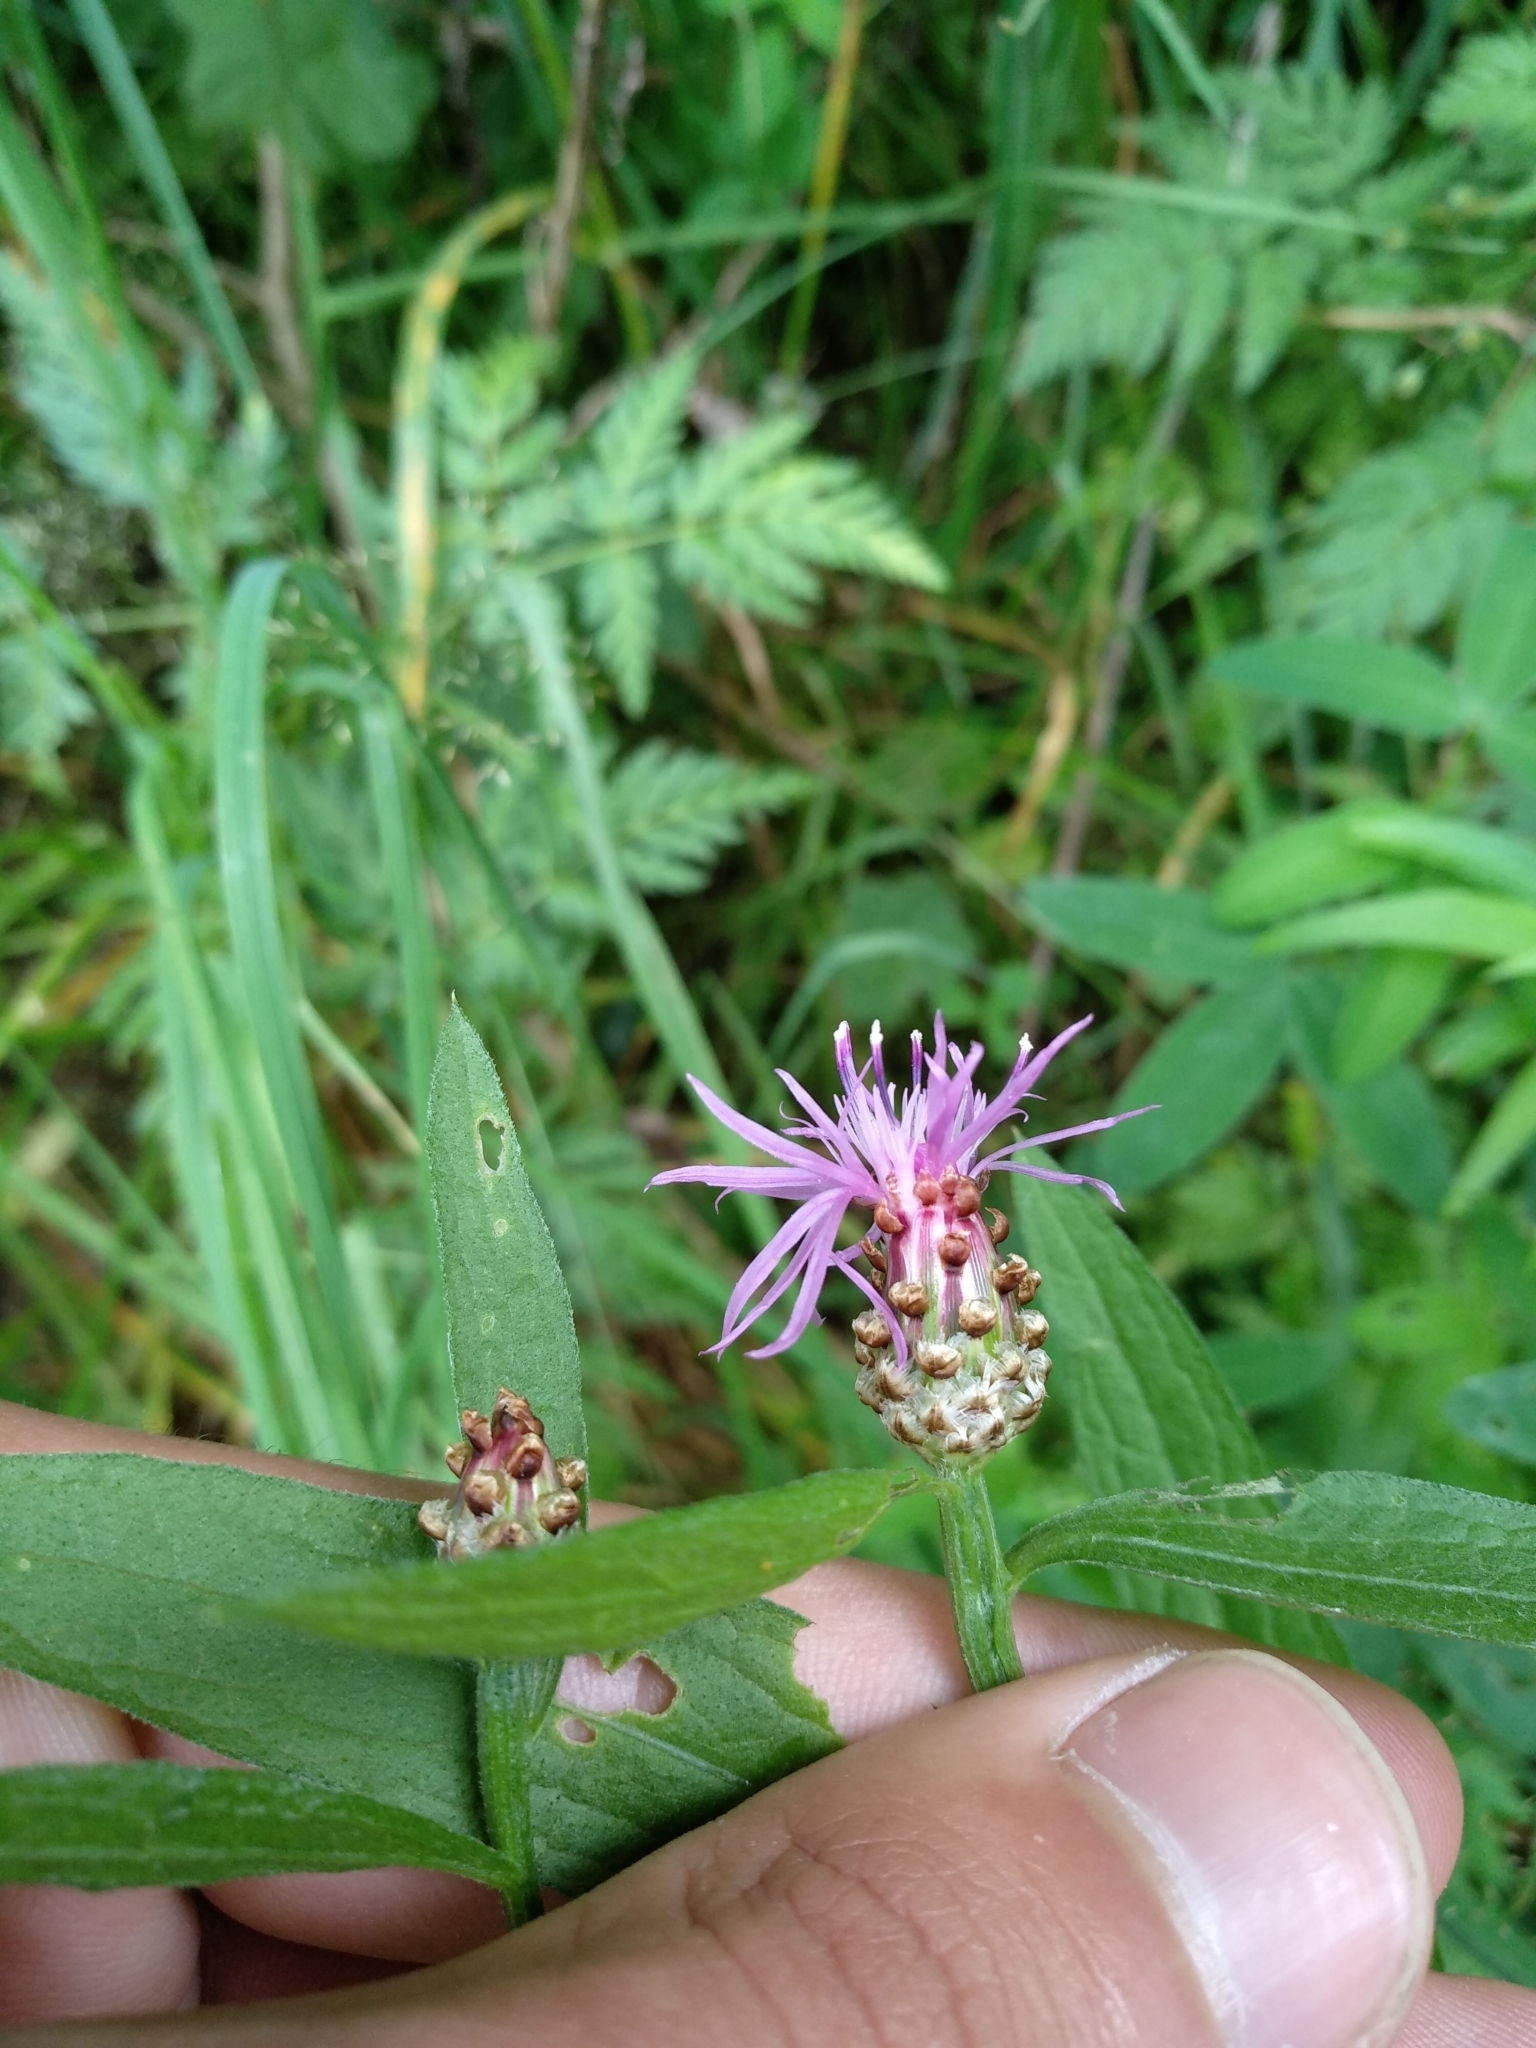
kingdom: Plantae
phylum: Tracheophyta
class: Magnoliopsida
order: Asterales
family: Asteraceae
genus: Centaurea
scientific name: Centaurea jacea
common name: Brown knapweed
